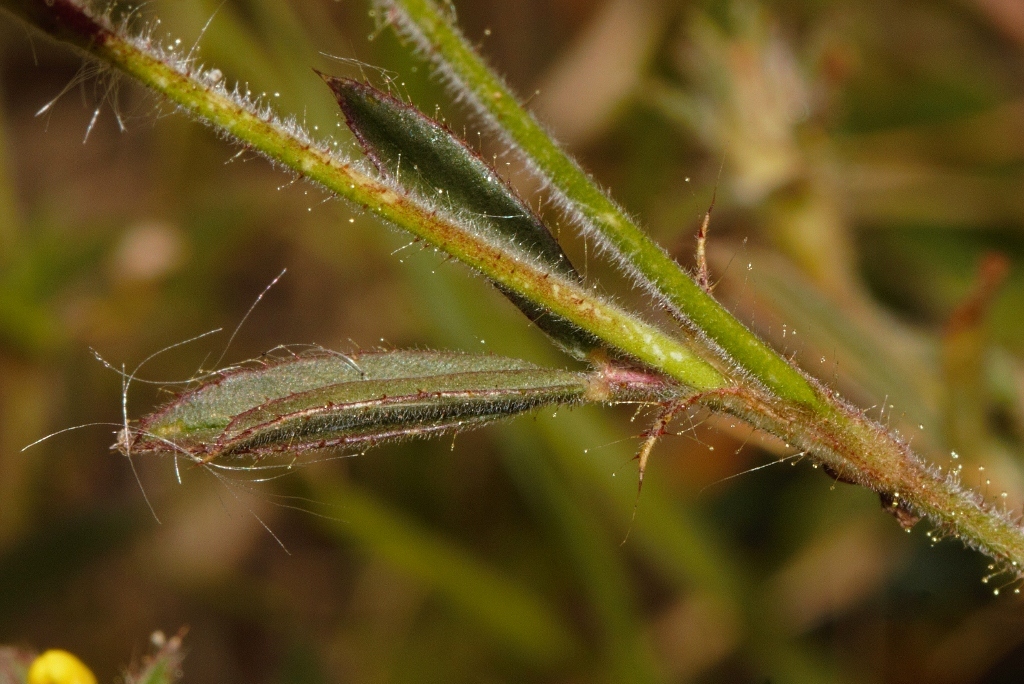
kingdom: Plantae
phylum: Tracheophyta
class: Magnoliopsida
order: Fabales
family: Fabaceae
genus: Stylosanthes
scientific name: Stylosanthes fruticosa
